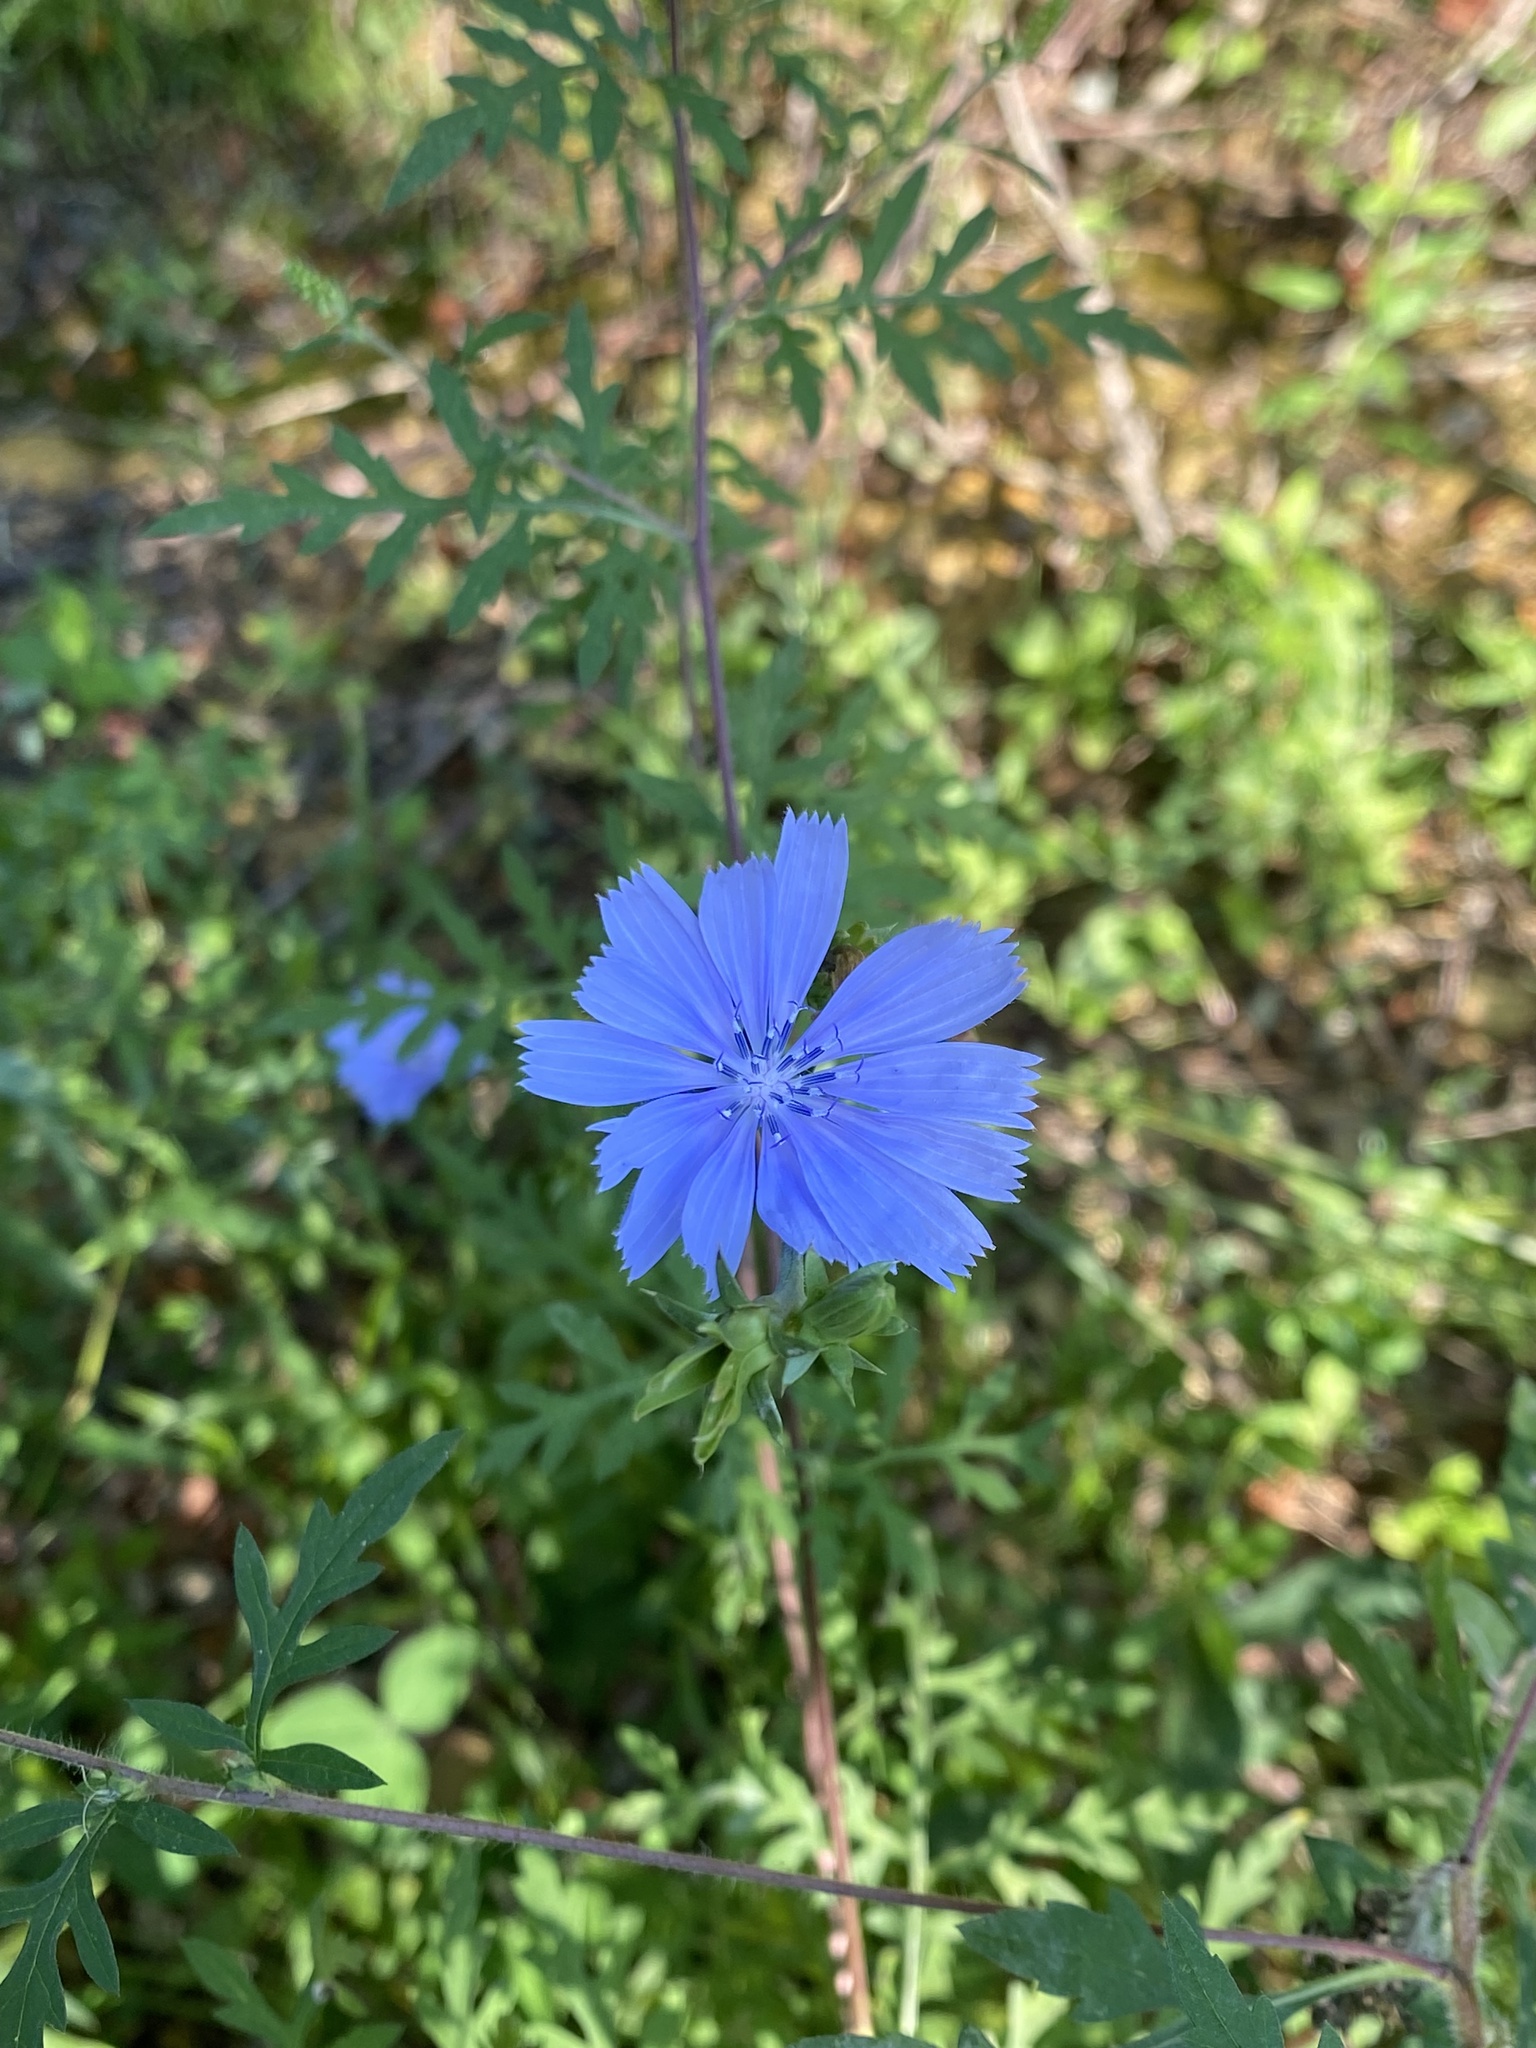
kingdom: Plantae
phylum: Tracheophyta
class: Magnoliopsida
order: Asterales
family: Asteraceae
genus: Cichorium
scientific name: Cichorium intybus
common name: Chicory
